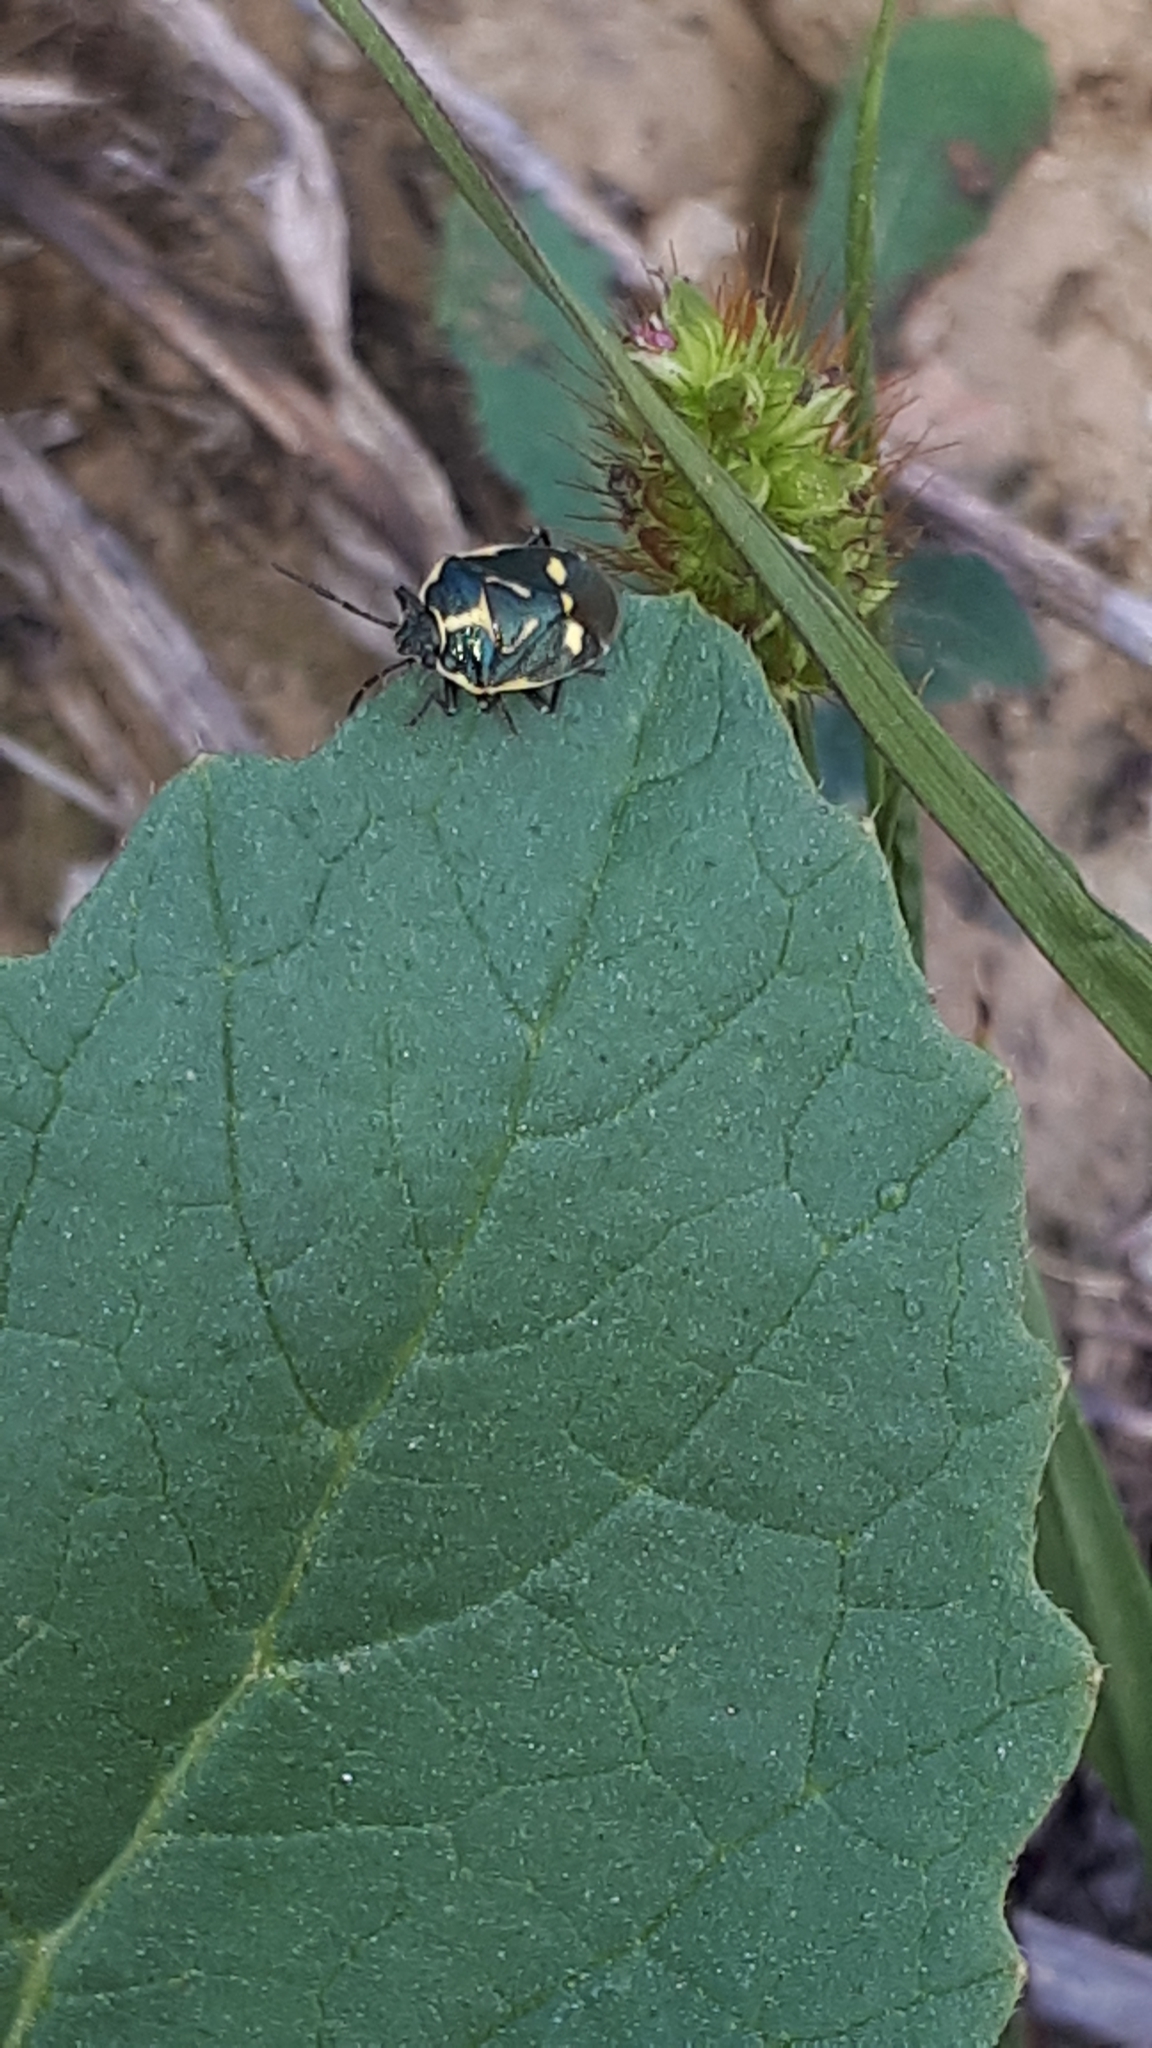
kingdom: Animalia
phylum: Arthropoda
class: Insecta
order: Hemiptera
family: Pentatomidae
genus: Eurydema
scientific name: Eurydema oleracea
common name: Cabbage bug
